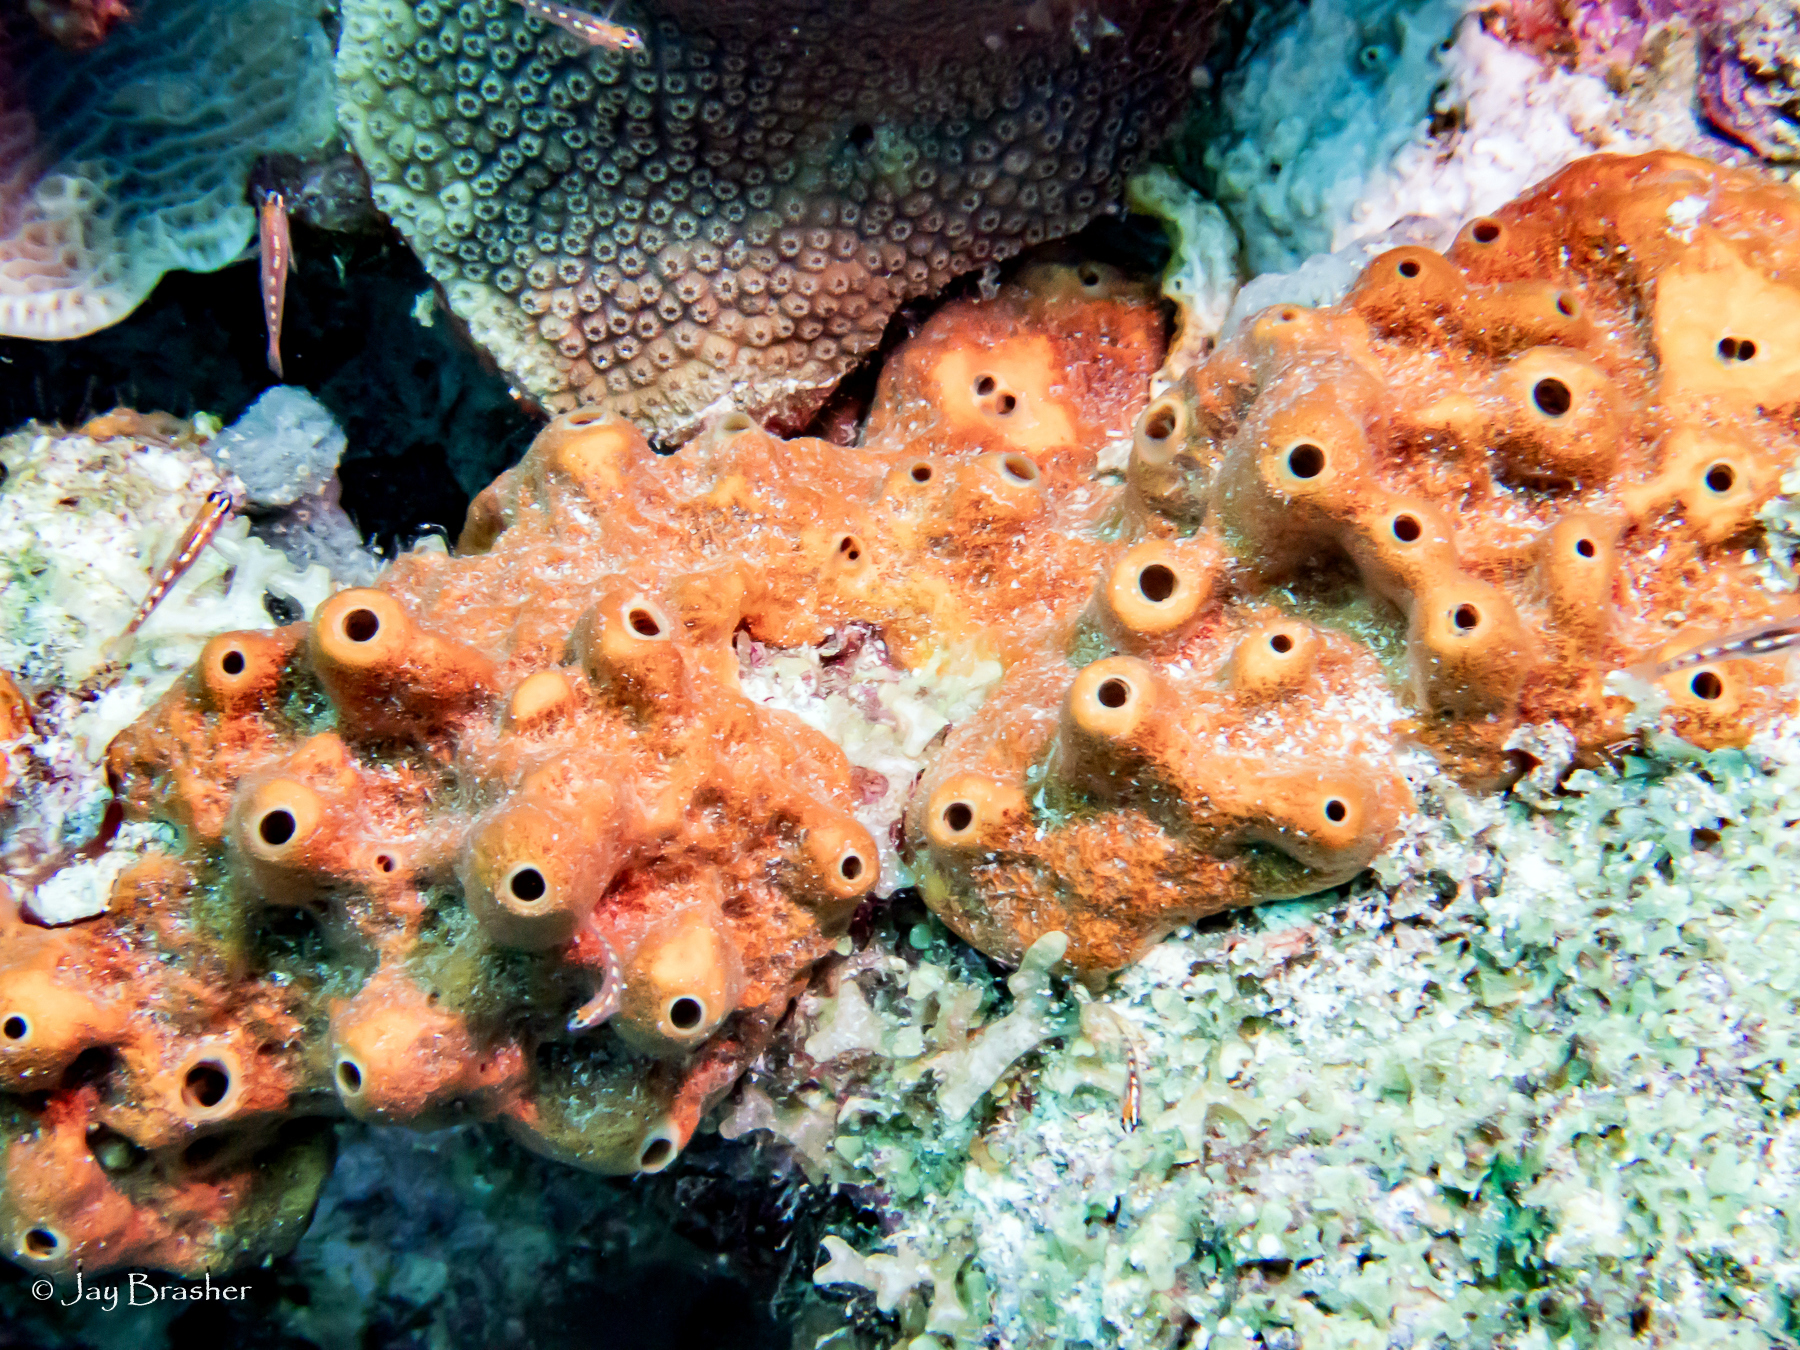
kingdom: Animalia
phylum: Porifera
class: Demospongiae
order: Axinellida
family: Raspailiidae
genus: Ectyoplasia
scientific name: Ectyoplasia ferox
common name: Brown encrusting octopus sponge
